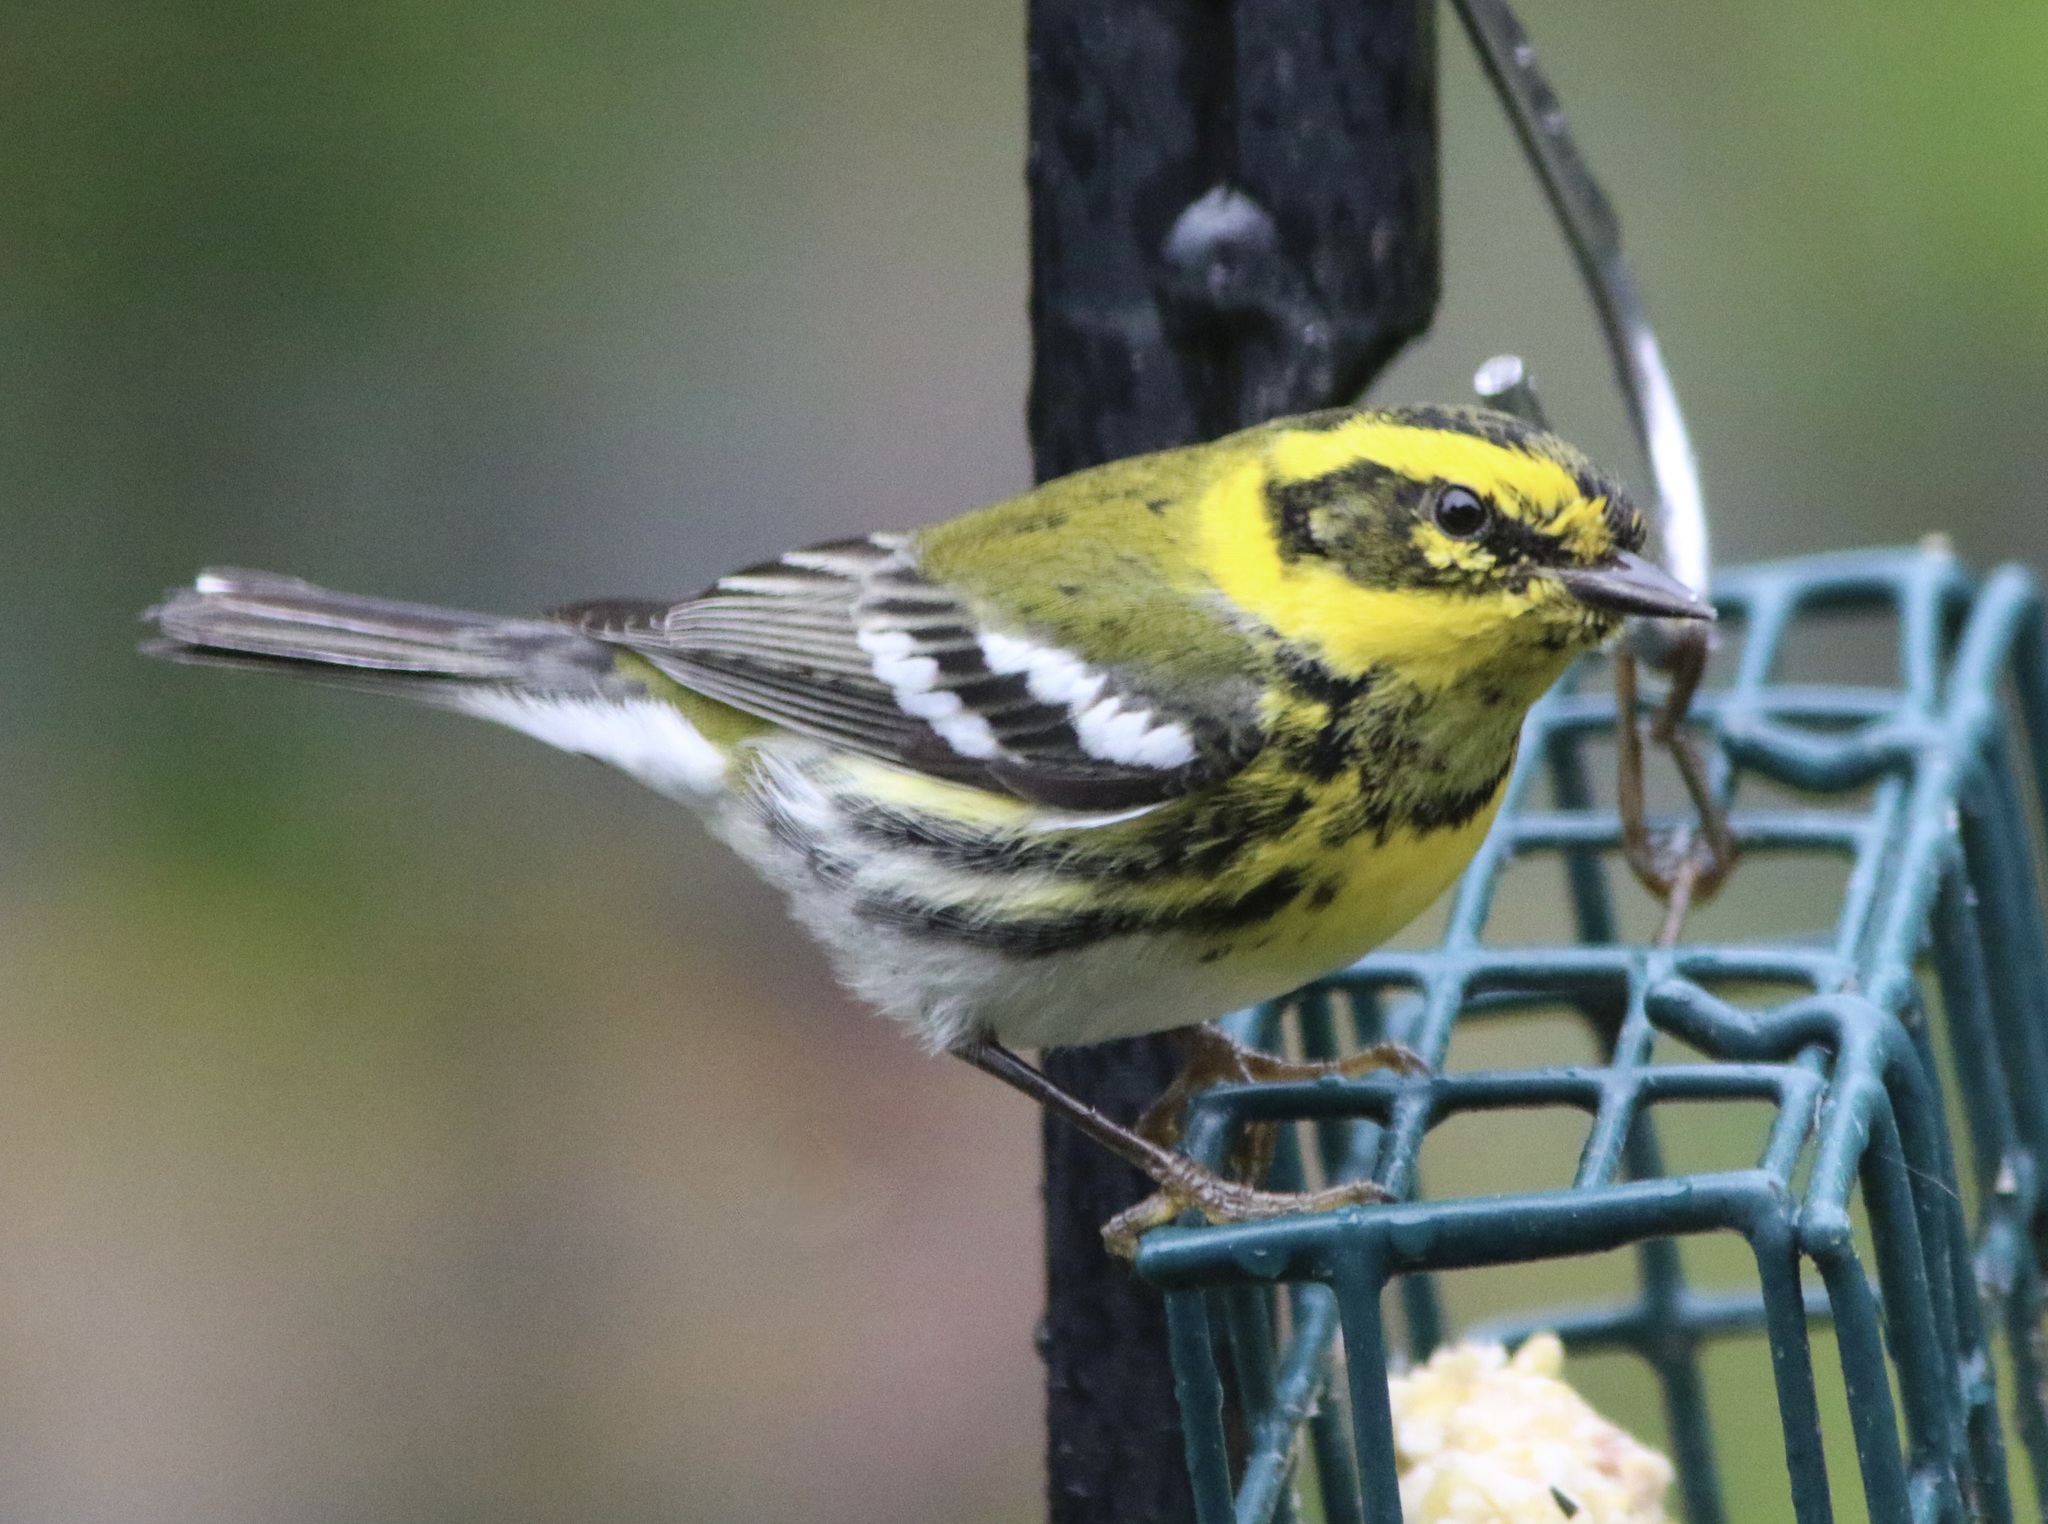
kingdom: Animalia
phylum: Chordata
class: Aves
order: Passeriformes
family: Parulidae
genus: Setophaga
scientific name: Setophaga townsendi
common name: Townsend's warbler
